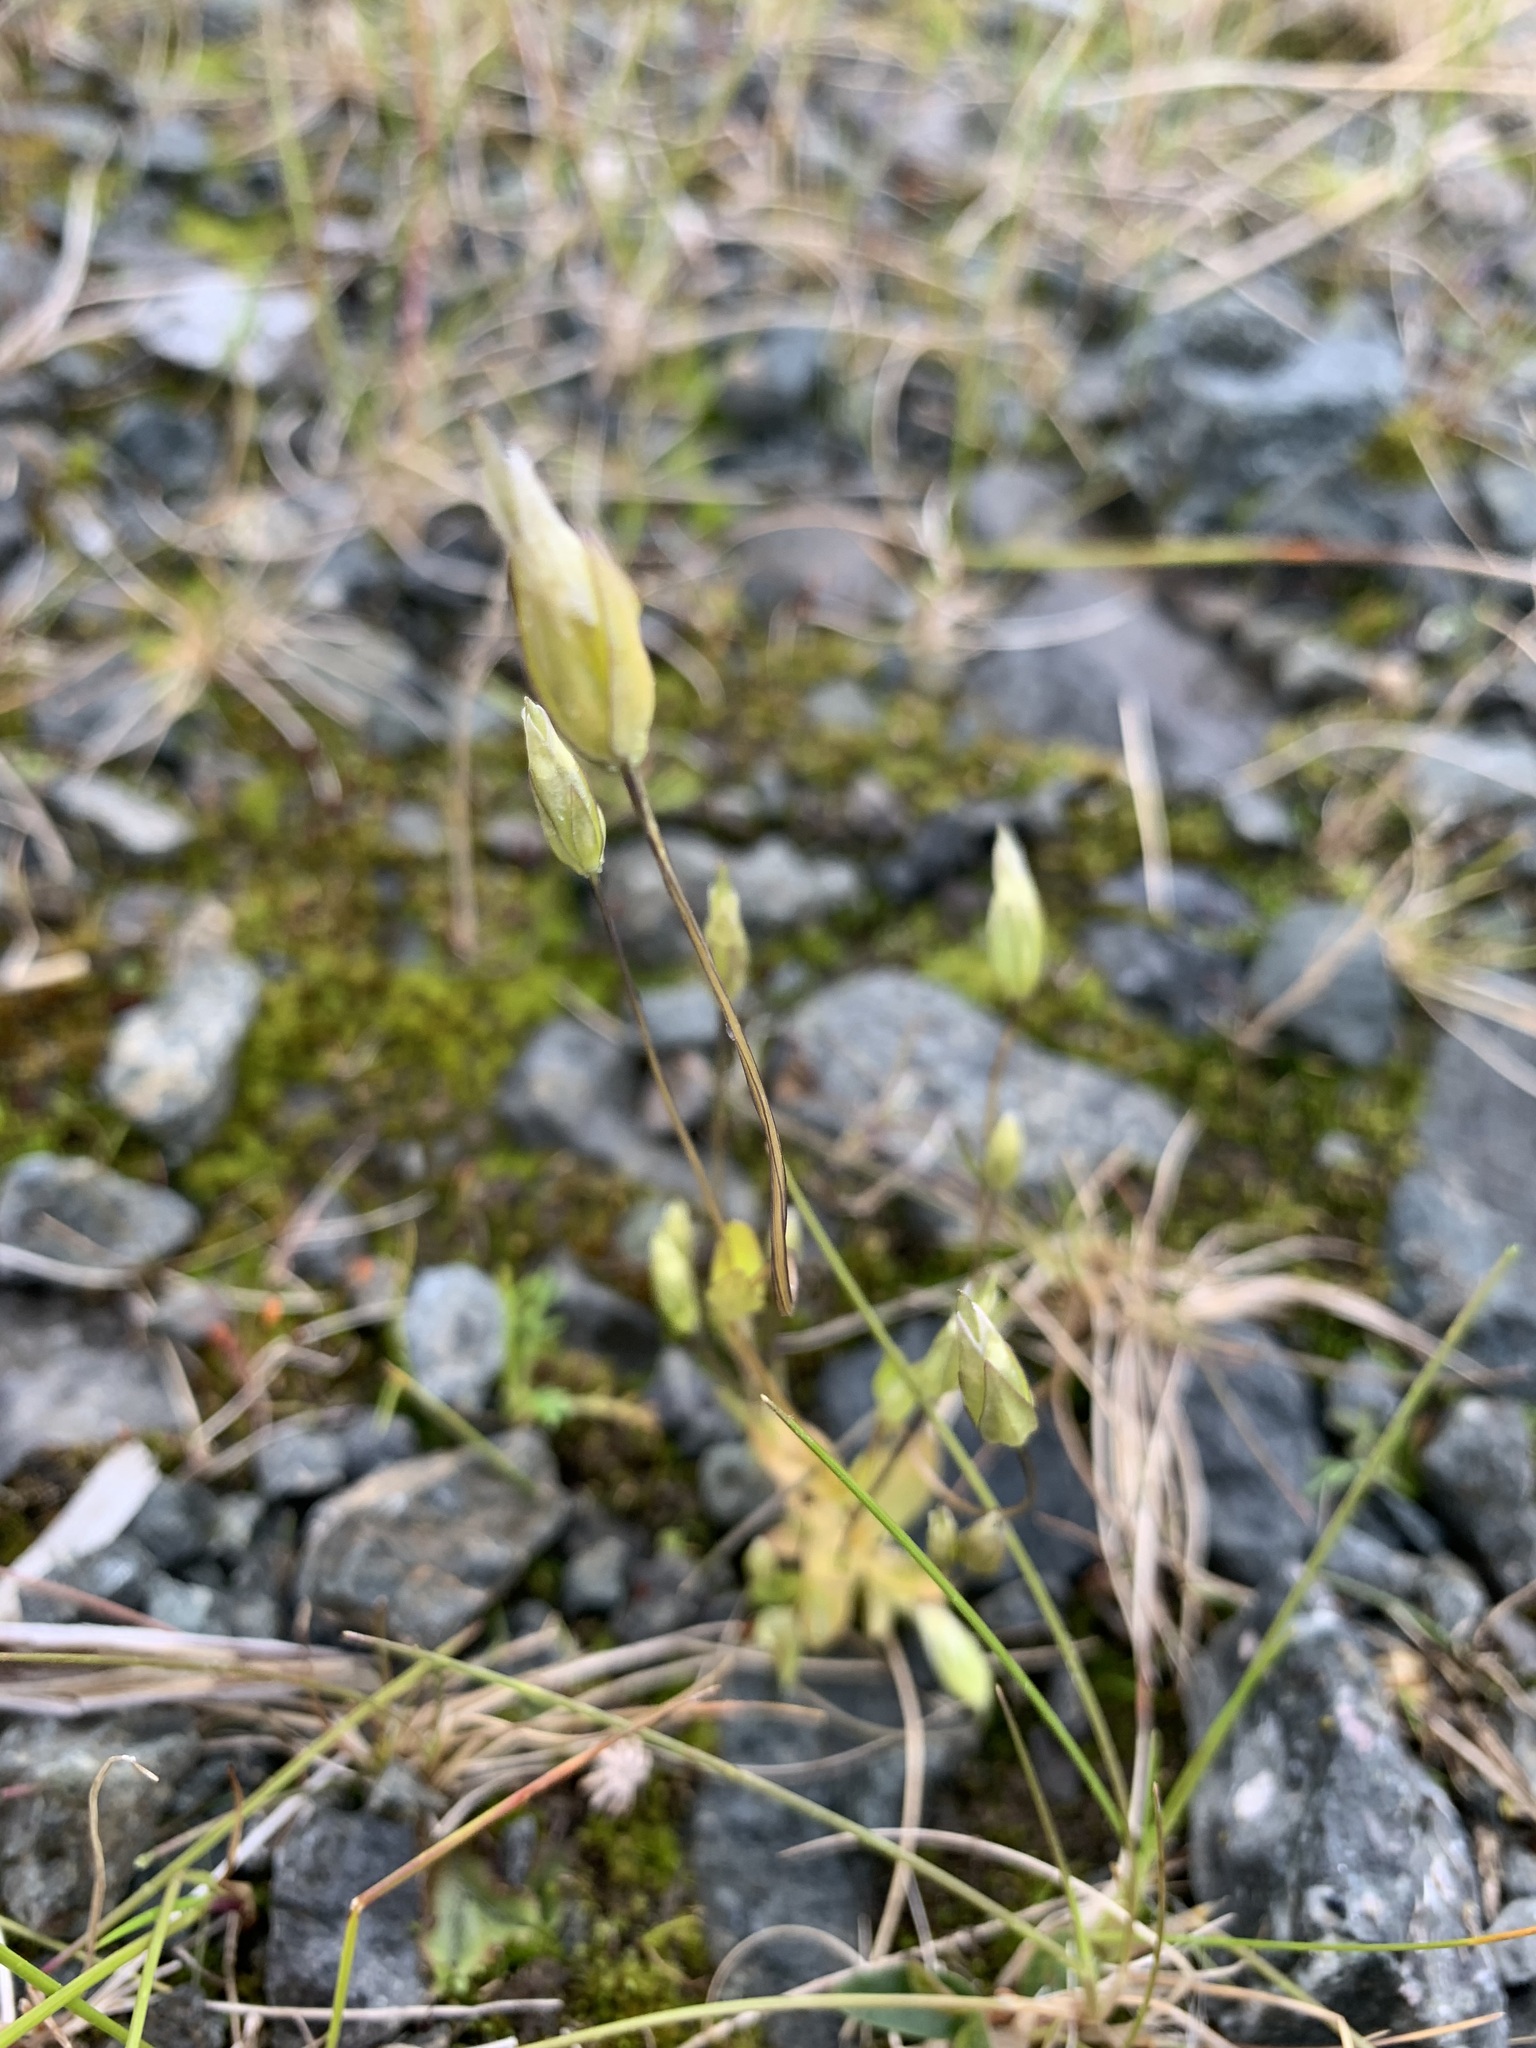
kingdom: Plantae
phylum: Tracheophyta
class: Magnoliopsida
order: Gentianales
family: Gentianaceae
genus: Comastoma
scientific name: Comastoma tenellum
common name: Dane's dwarf gentian
